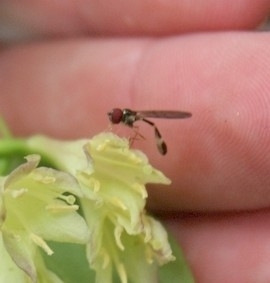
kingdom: Animalia
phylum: Arthropoda
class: Insecta
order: Diptera
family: Syrphidae
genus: Baccha
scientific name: Baccha cognata
